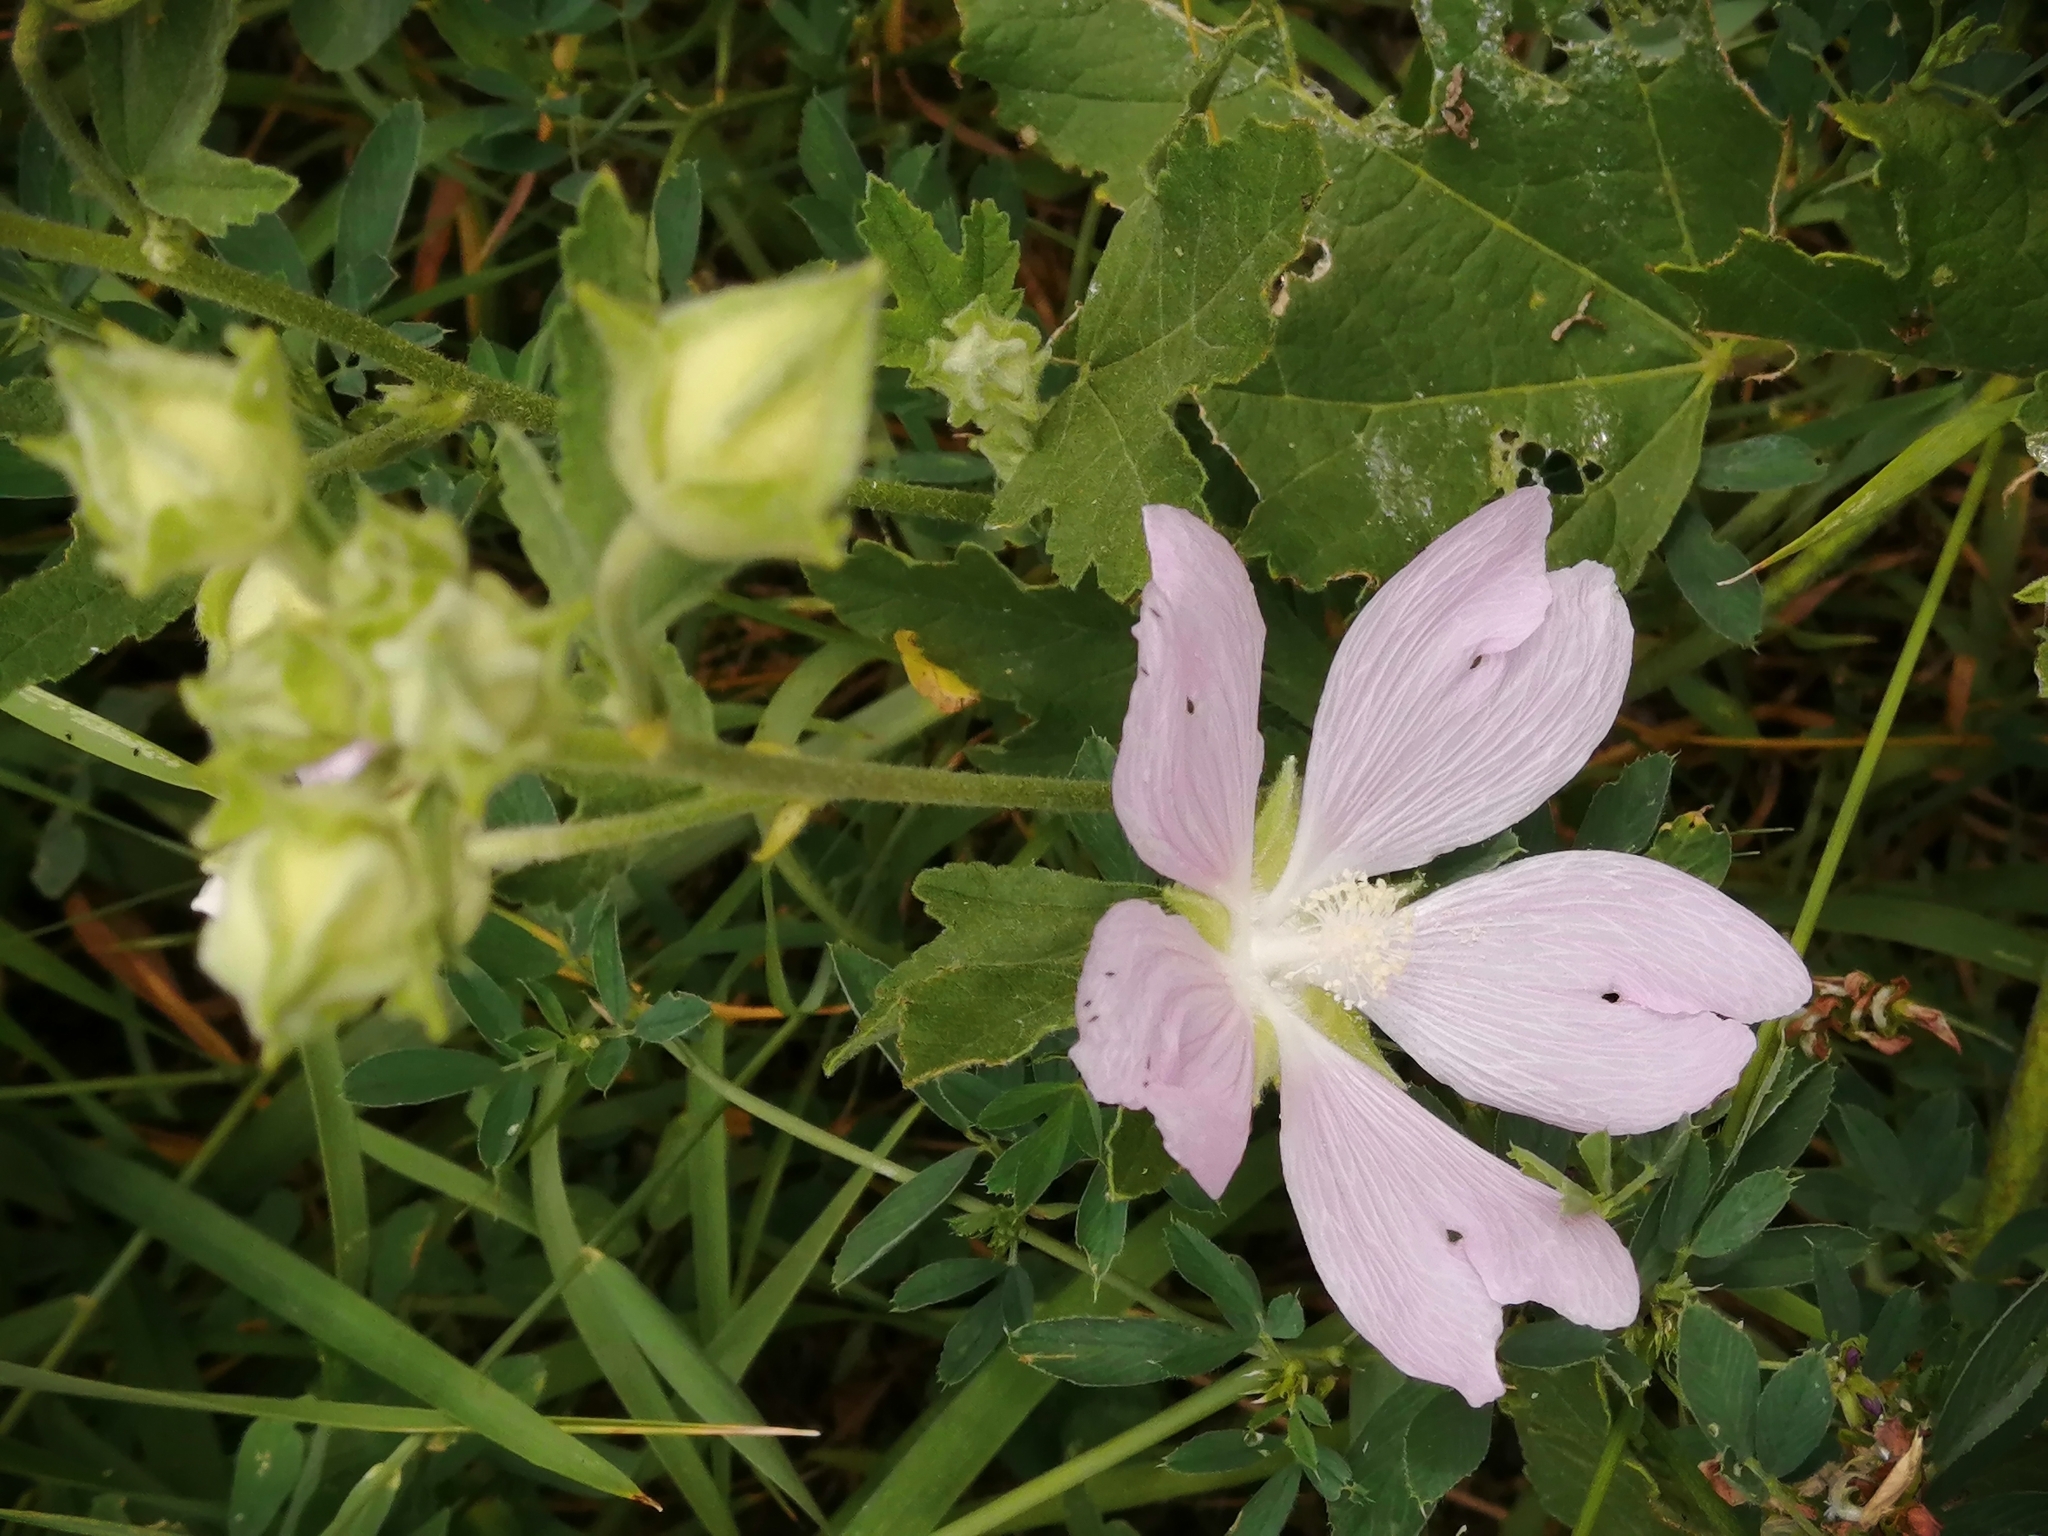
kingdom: Plantae
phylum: Tracheophyta
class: Magnoliopsida
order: Malvales
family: Malvaceae
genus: Malva
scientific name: Malva thuringiaca
